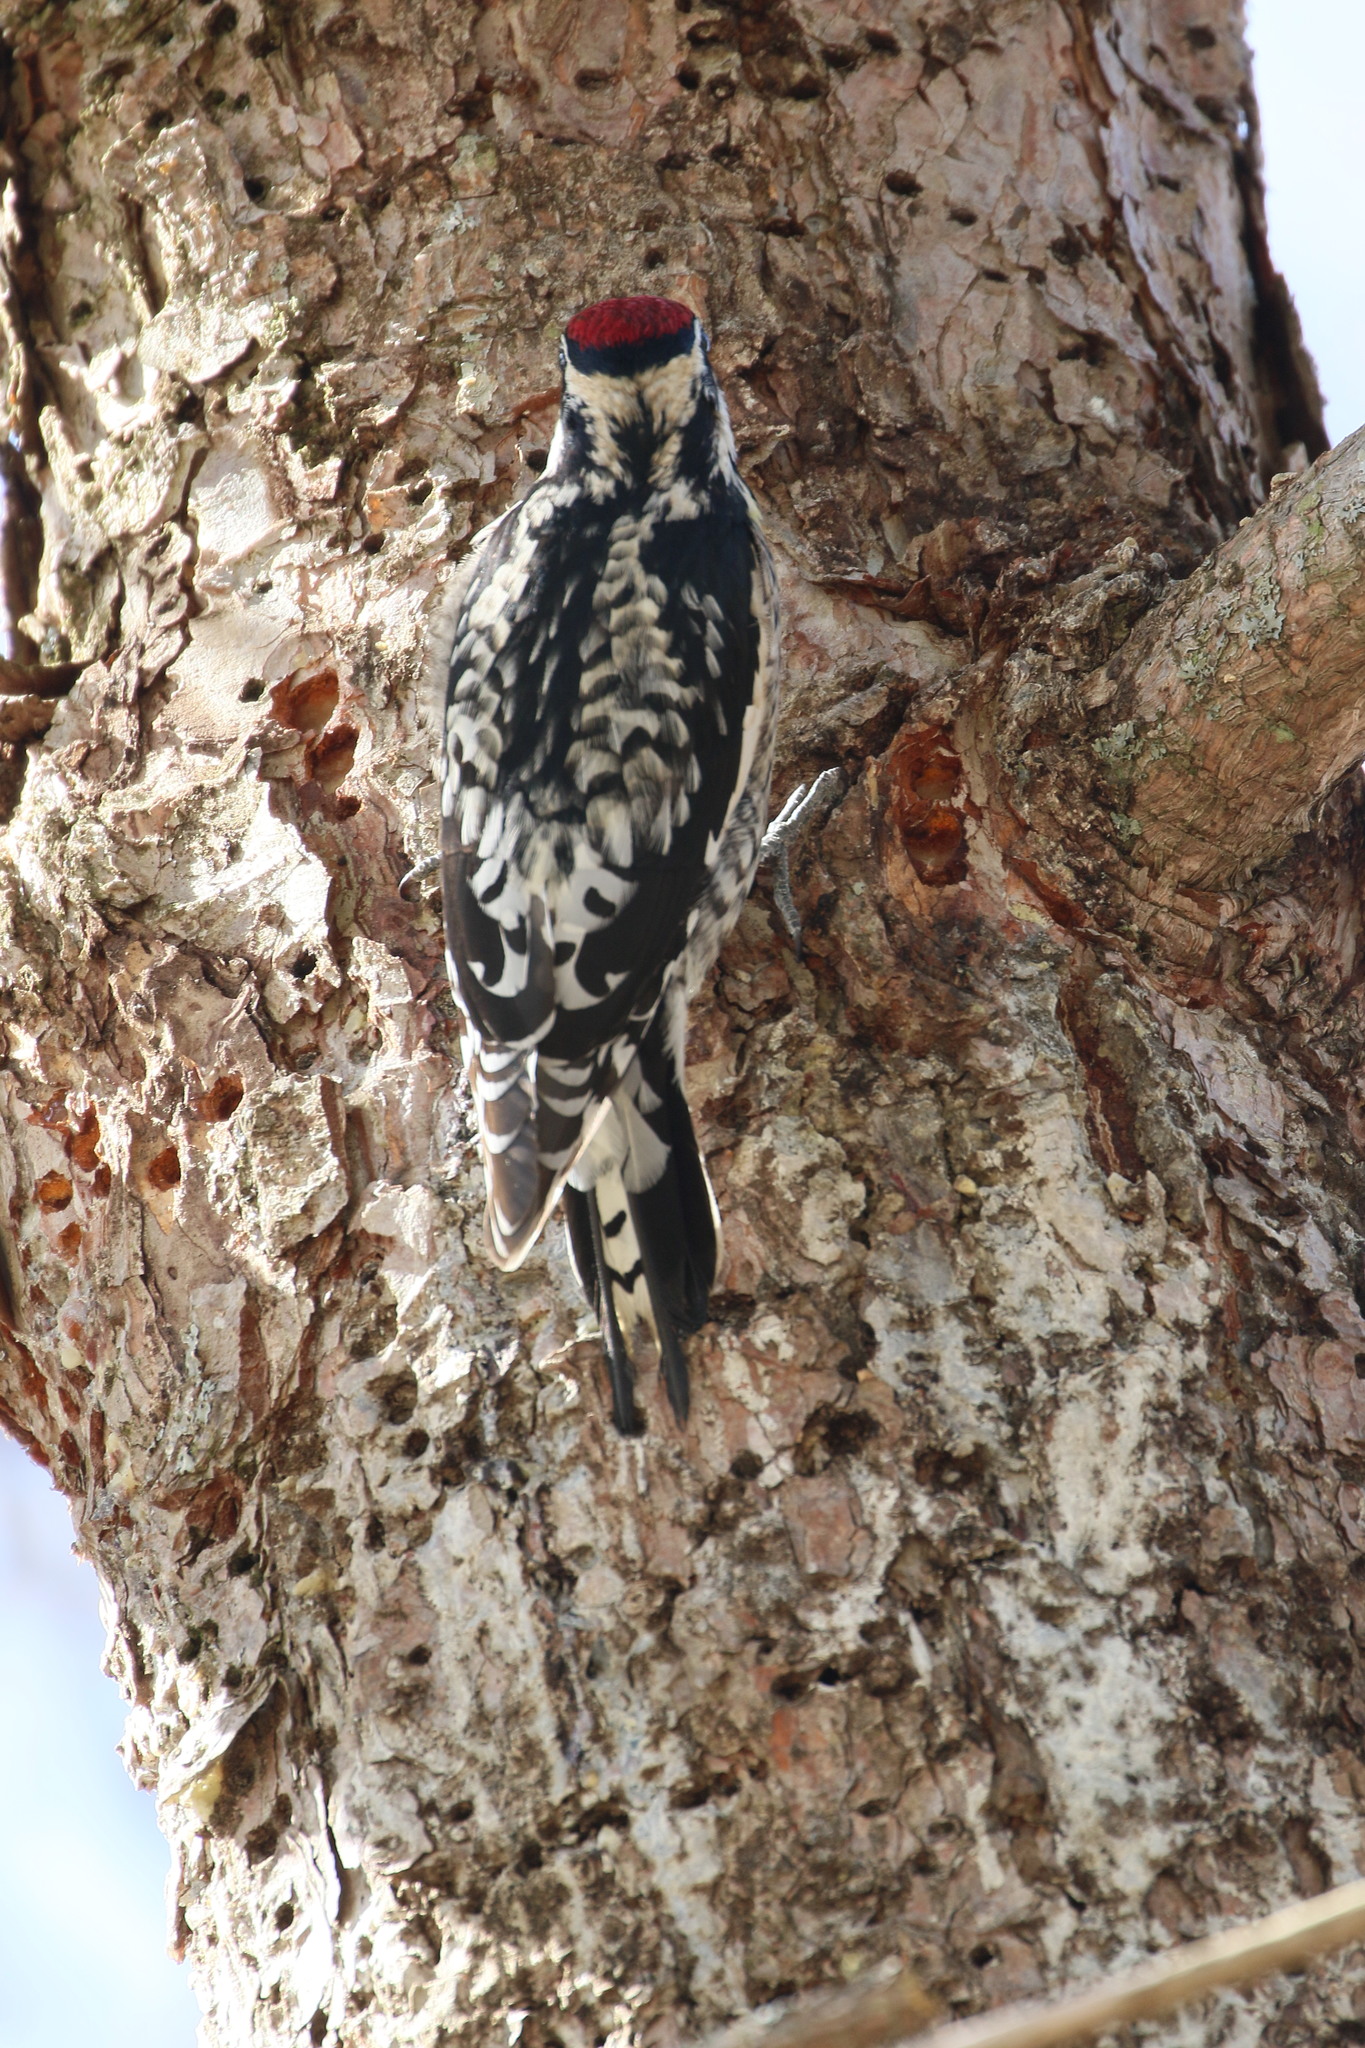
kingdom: Animalia
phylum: Chordata
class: Aves
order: Piciformes
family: Picidae
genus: Sphyrapicus
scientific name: Sphyrapicus varius
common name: Yellow-bellied sapsucker
